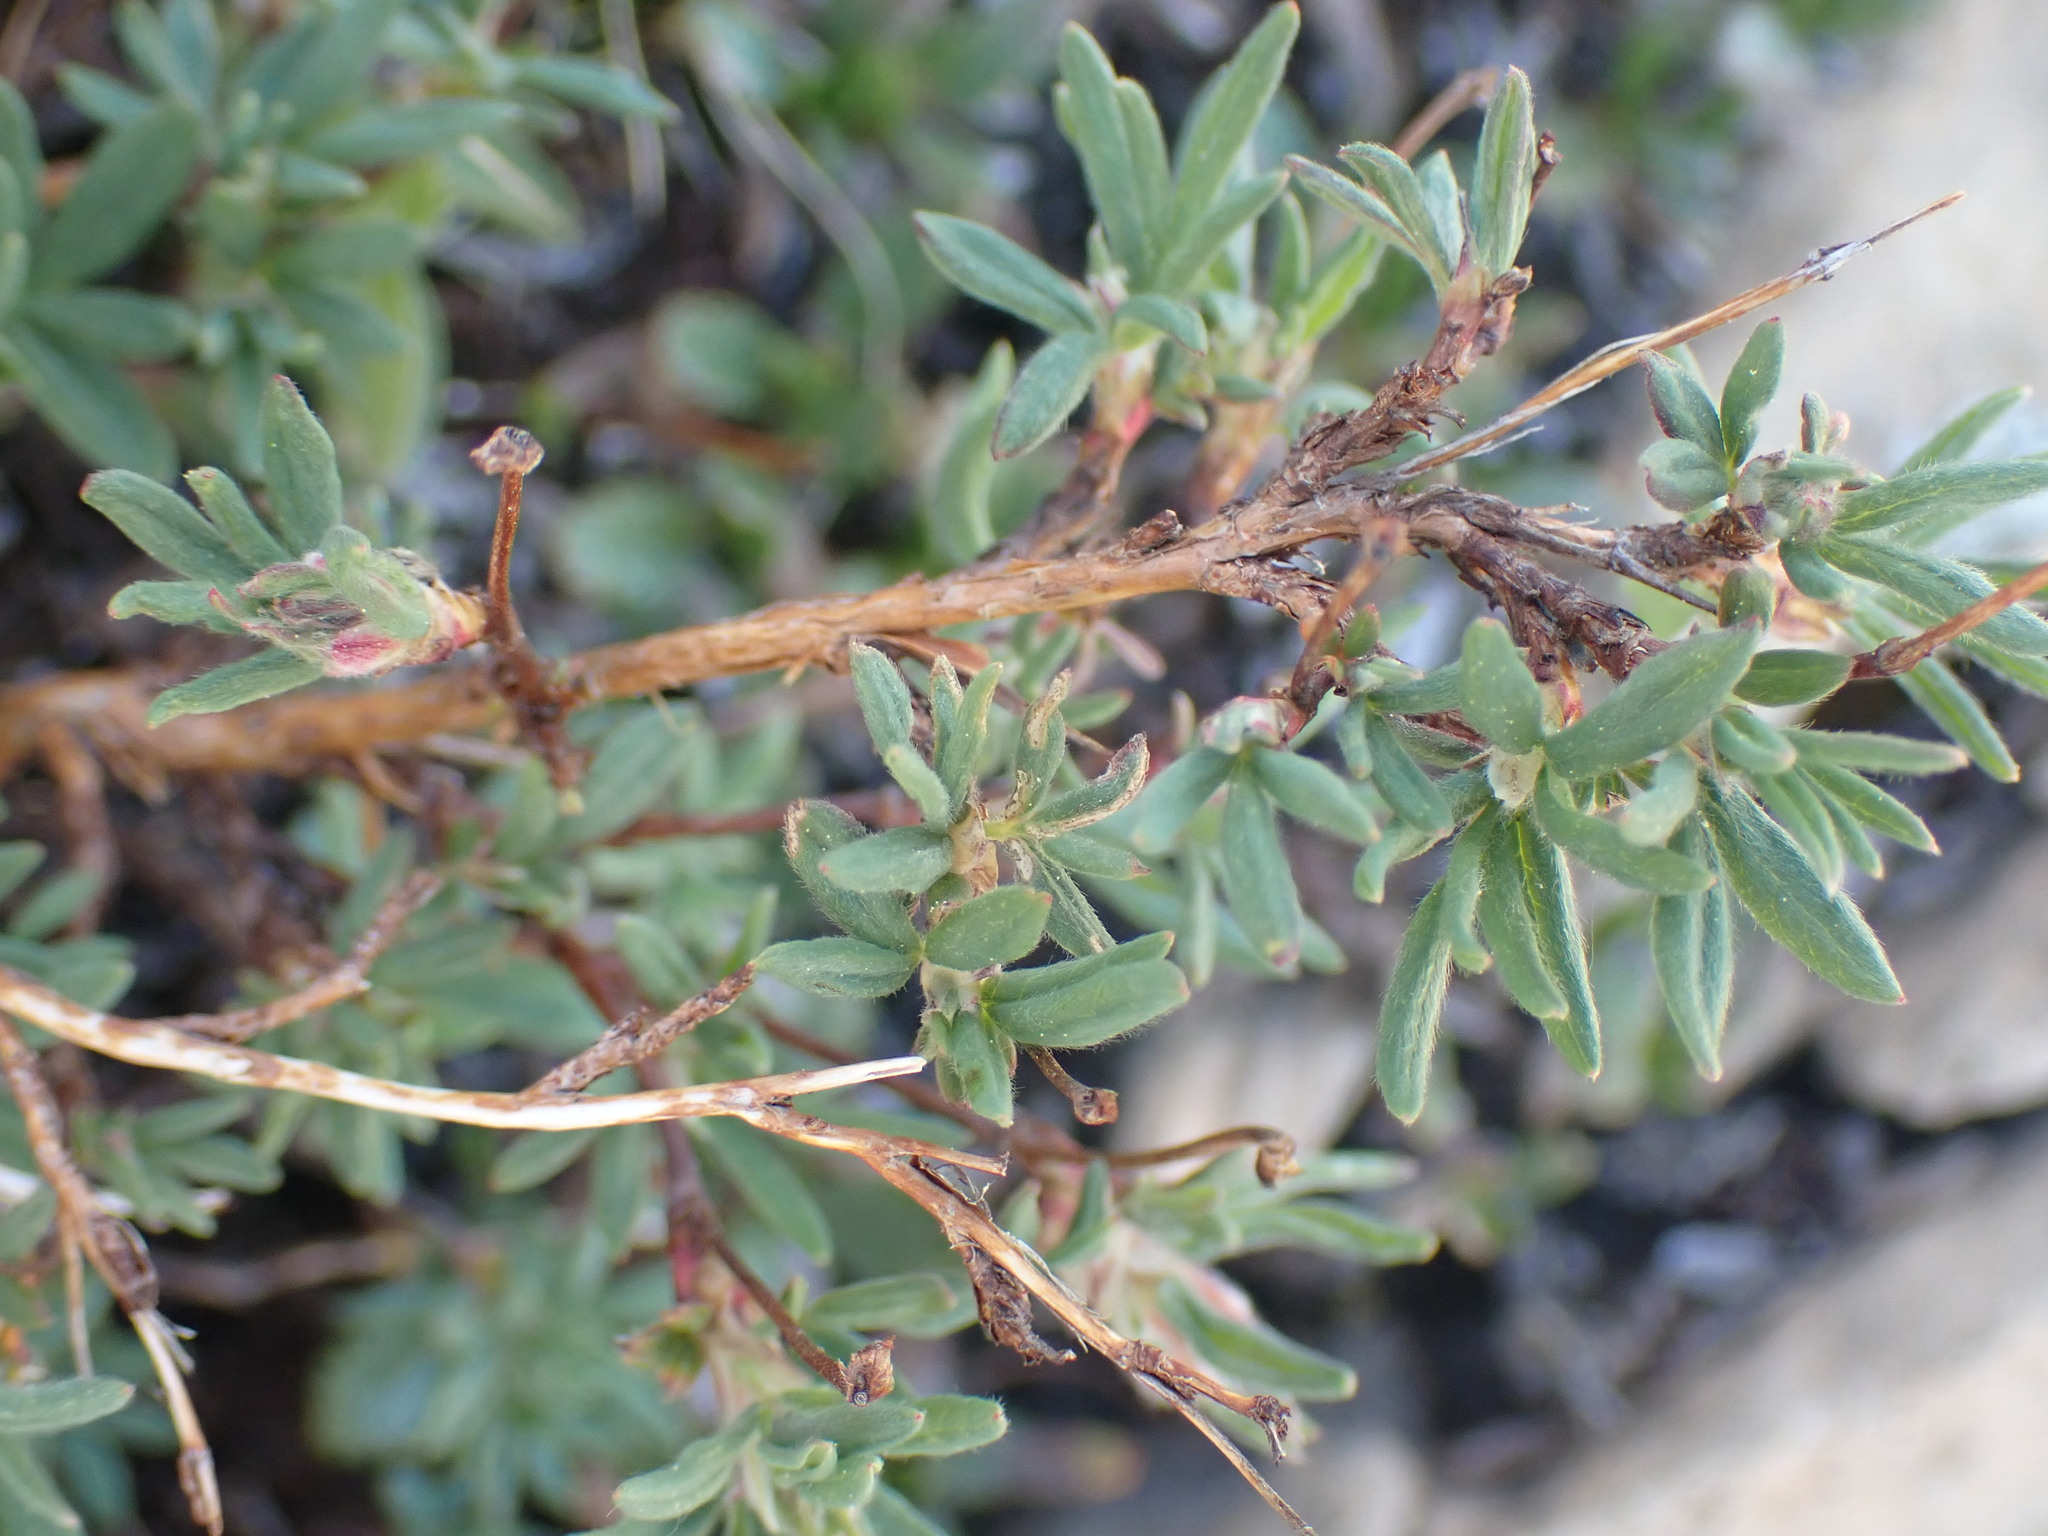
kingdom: Plantae
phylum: Tracheophyta
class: Magnoliopsida
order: Rosales
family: Rosaceae
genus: Dasiphora
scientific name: Dasiphora fruticosa
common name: Shrubby cinquefoil
